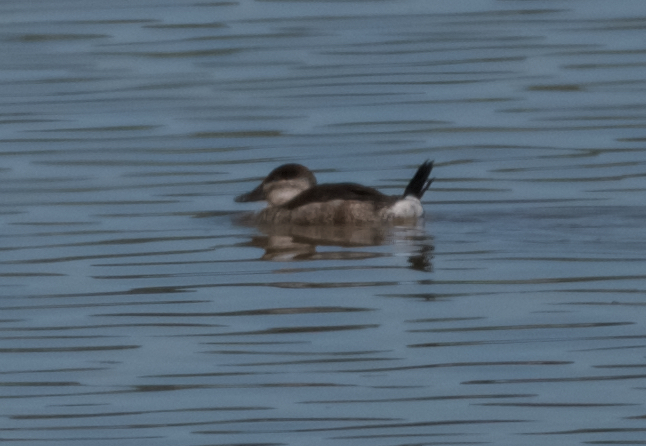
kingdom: Animalia
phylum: Chordata
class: Aves
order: Anseriformes
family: Anatidae
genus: Oxyura
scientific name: Oxyura jamaicensis
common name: Ruddy duck
